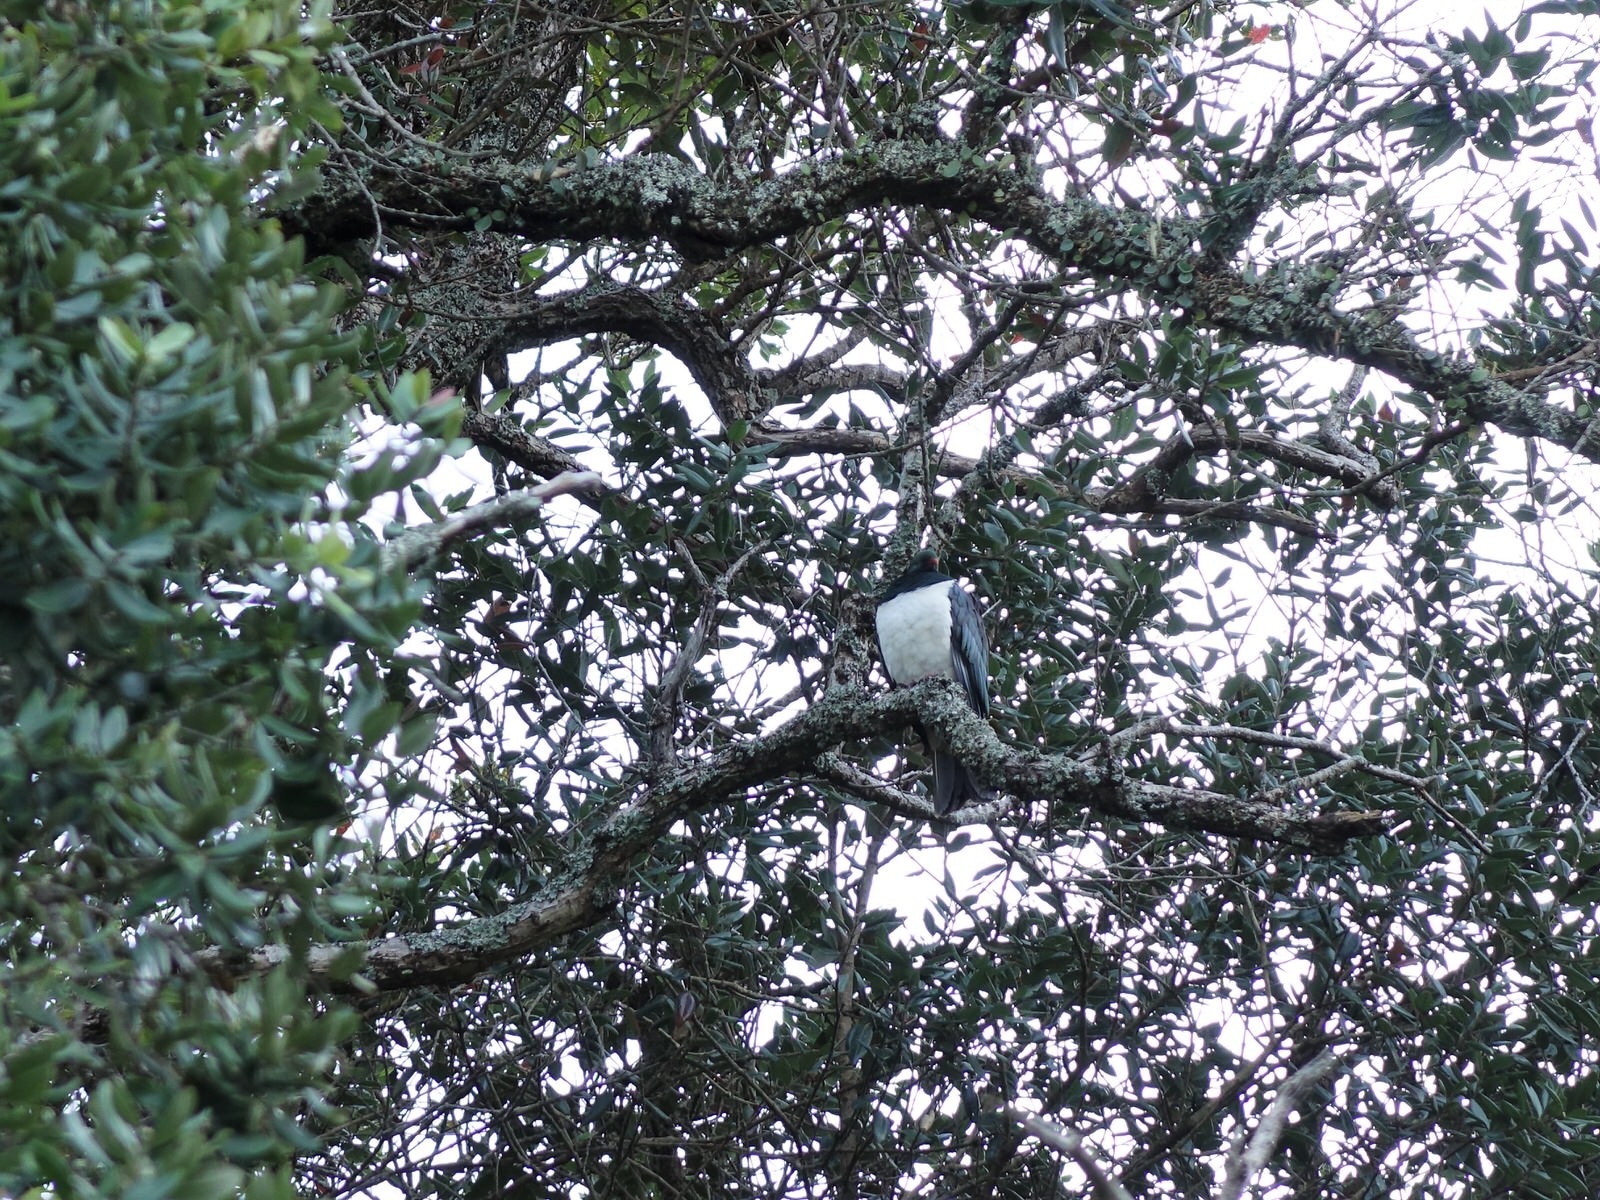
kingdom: Animalia
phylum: Chordata
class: Aves
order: Columbiformes
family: Columbidae
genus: Hemiphaga
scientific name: Hemiphaga novaeseelandiae
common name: New zealand pigeon
